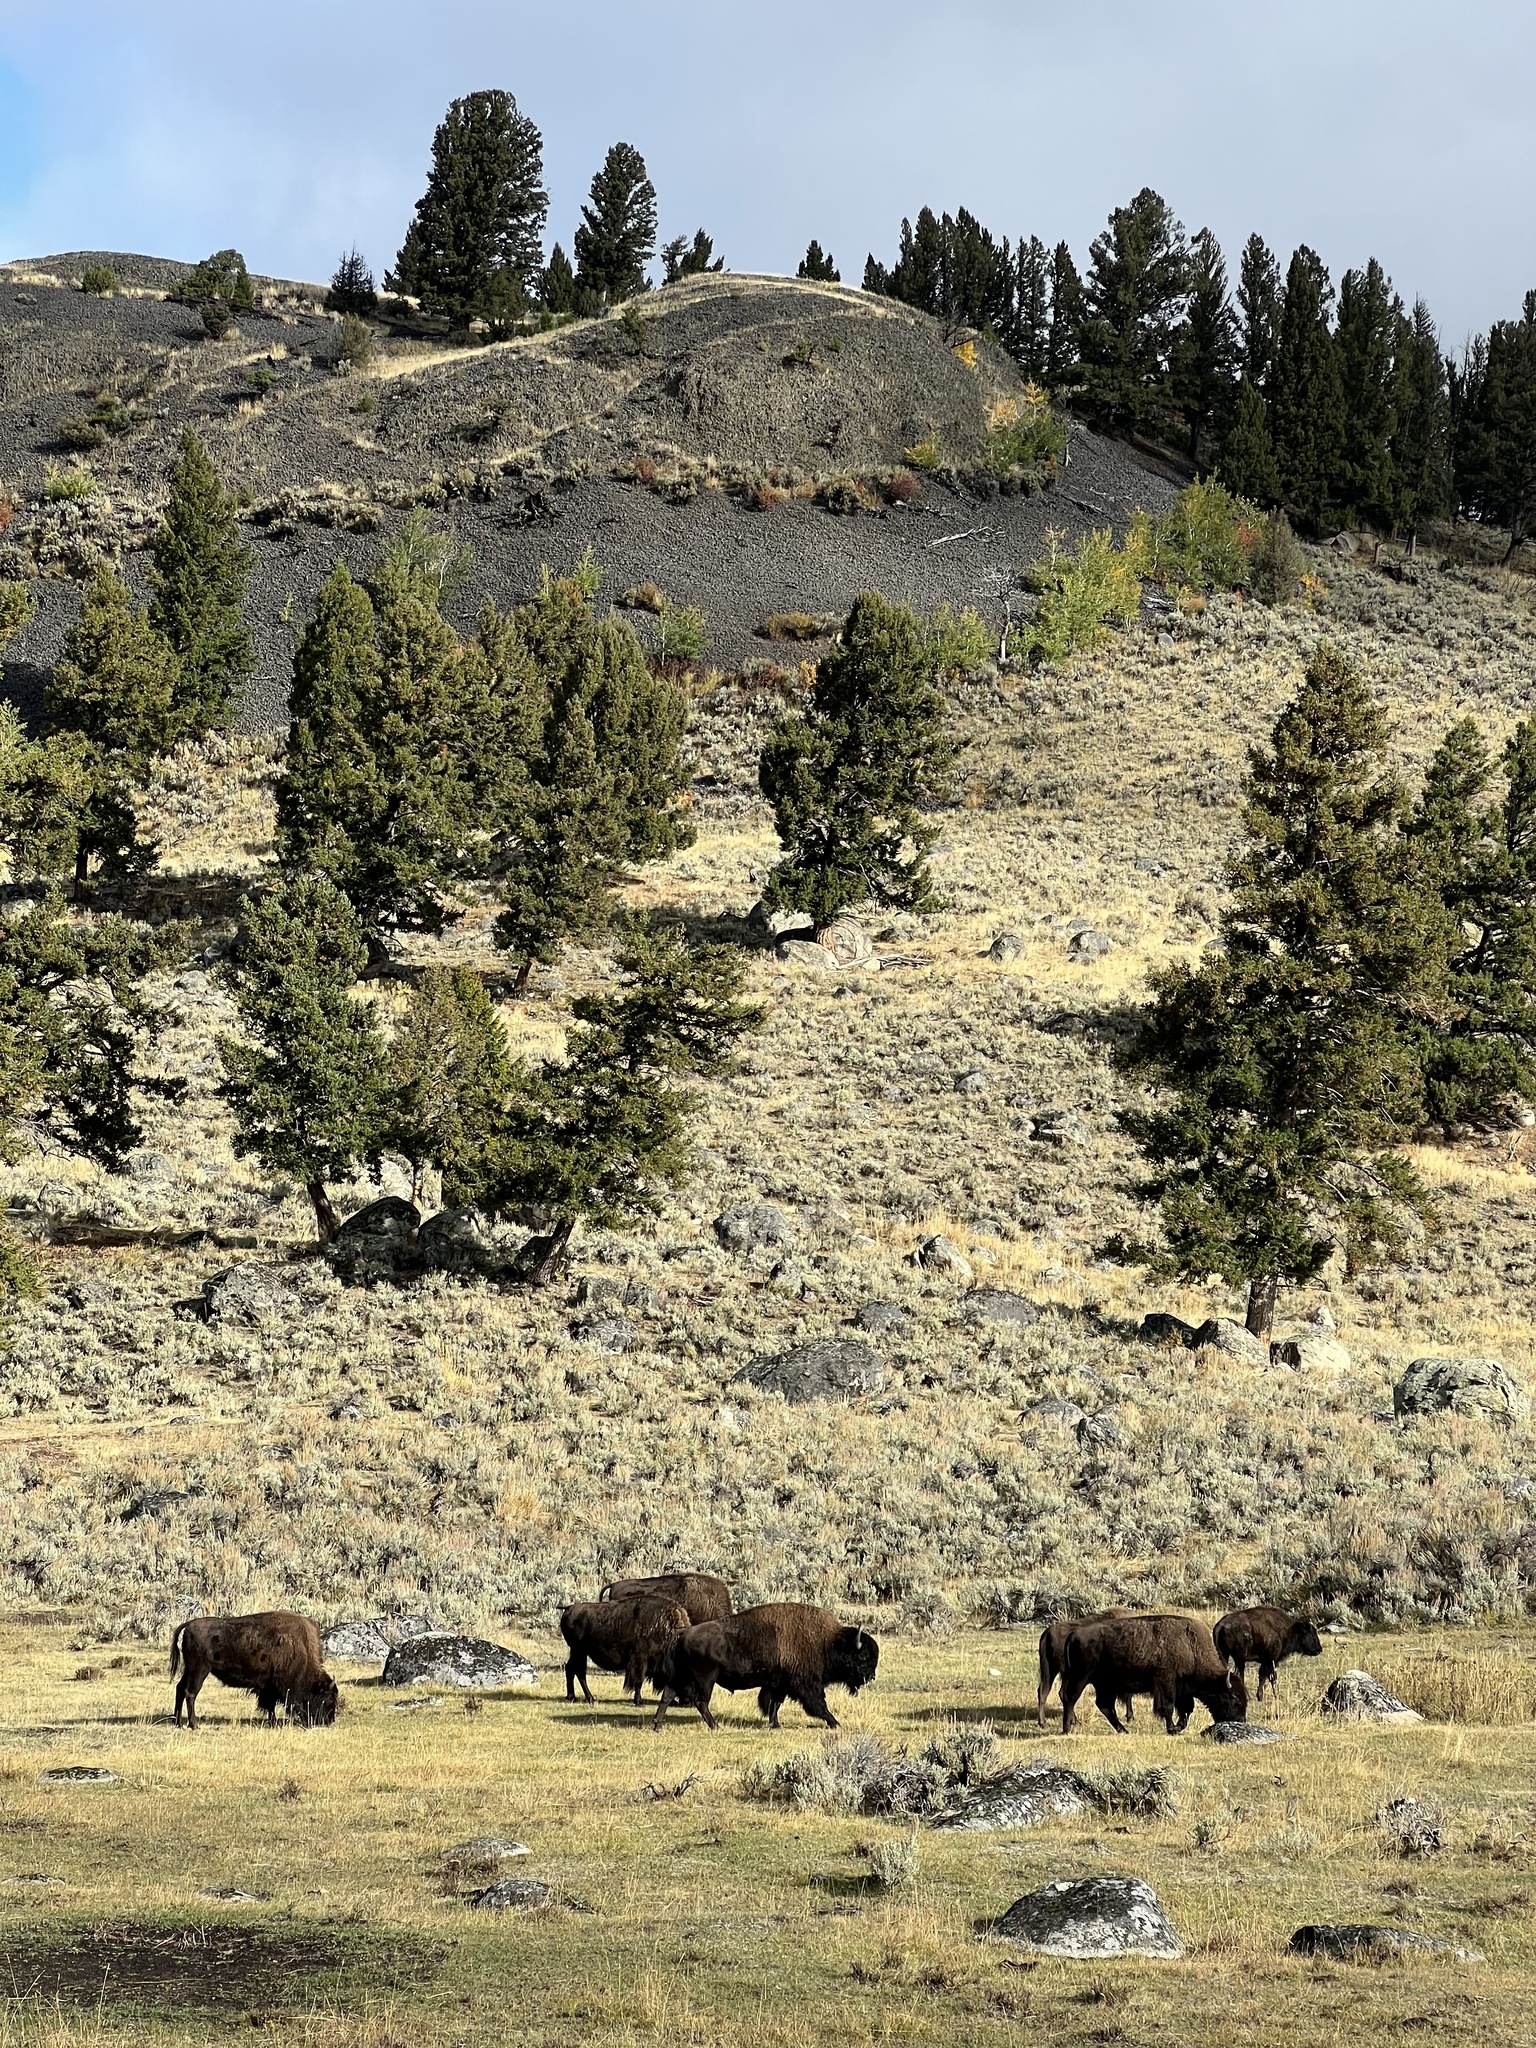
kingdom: Animalia
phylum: Chordata
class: Mammalia
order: Artiodactyla
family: Bovidae
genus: Bison
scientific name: Bison bison
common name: American bison
